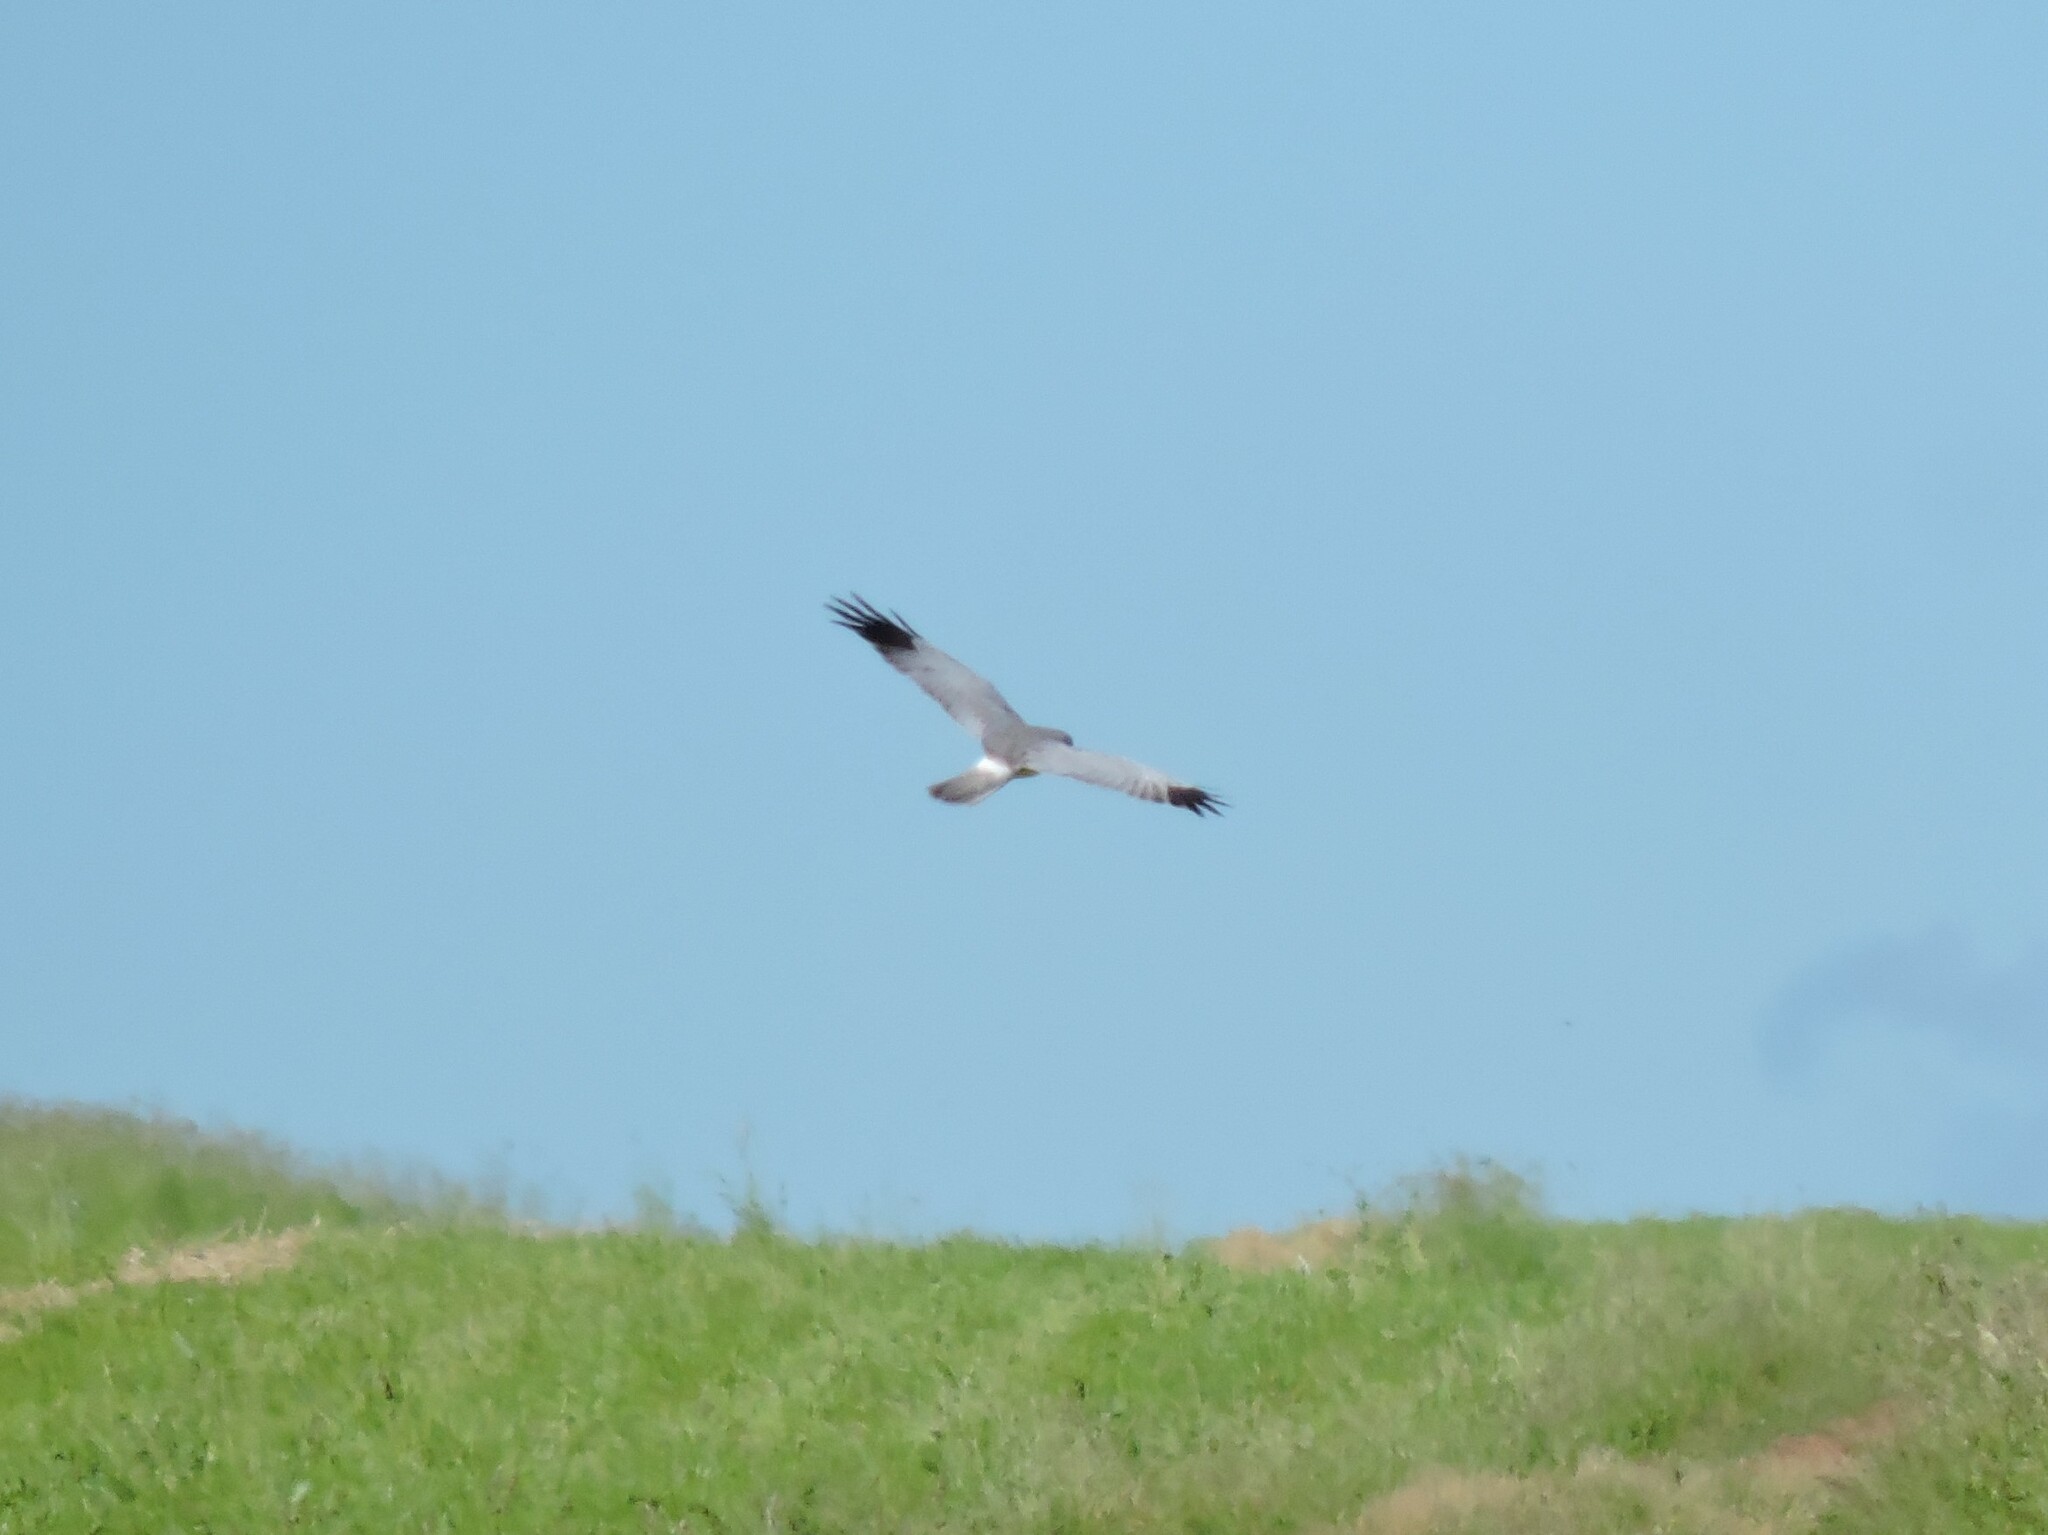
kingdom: Animalia
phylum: Chordata
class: Aves
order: Accipitriformes
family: Accipitridae
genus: Circus
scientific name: Circus cyaneus
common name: Hen harrier
